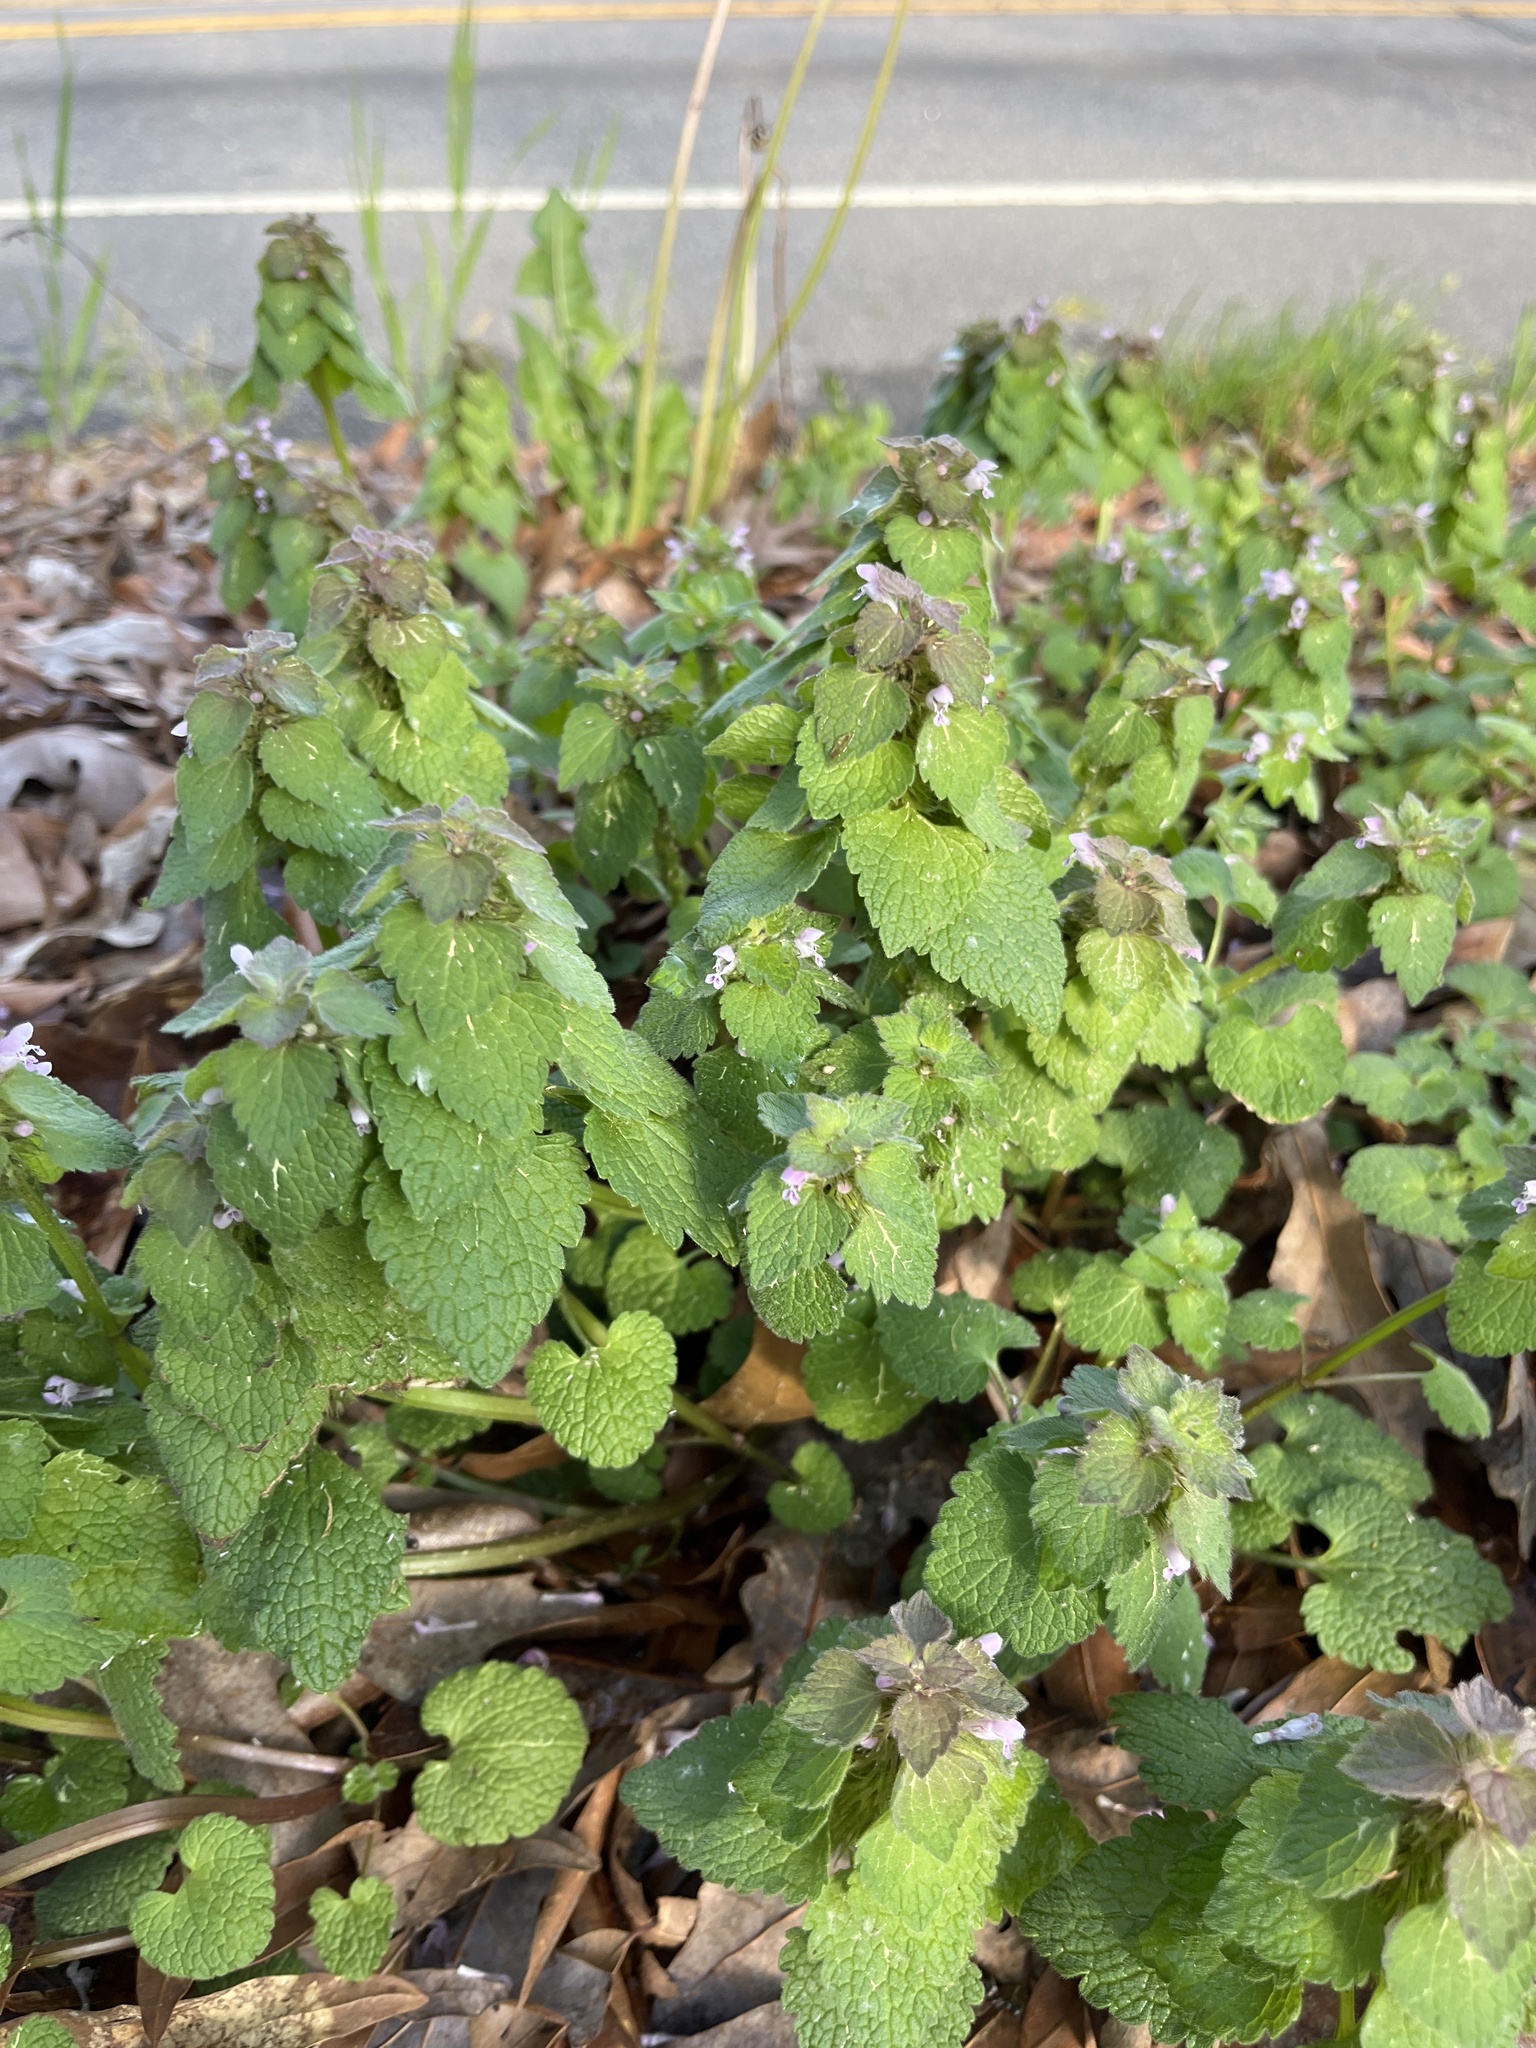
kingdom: Plantae
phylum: Tracheophyta
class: Magnoliopsida
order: Lamiales
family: Lamiaceae
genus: Lamium
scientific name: Lamium purpureum
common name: Red dead-nettle
